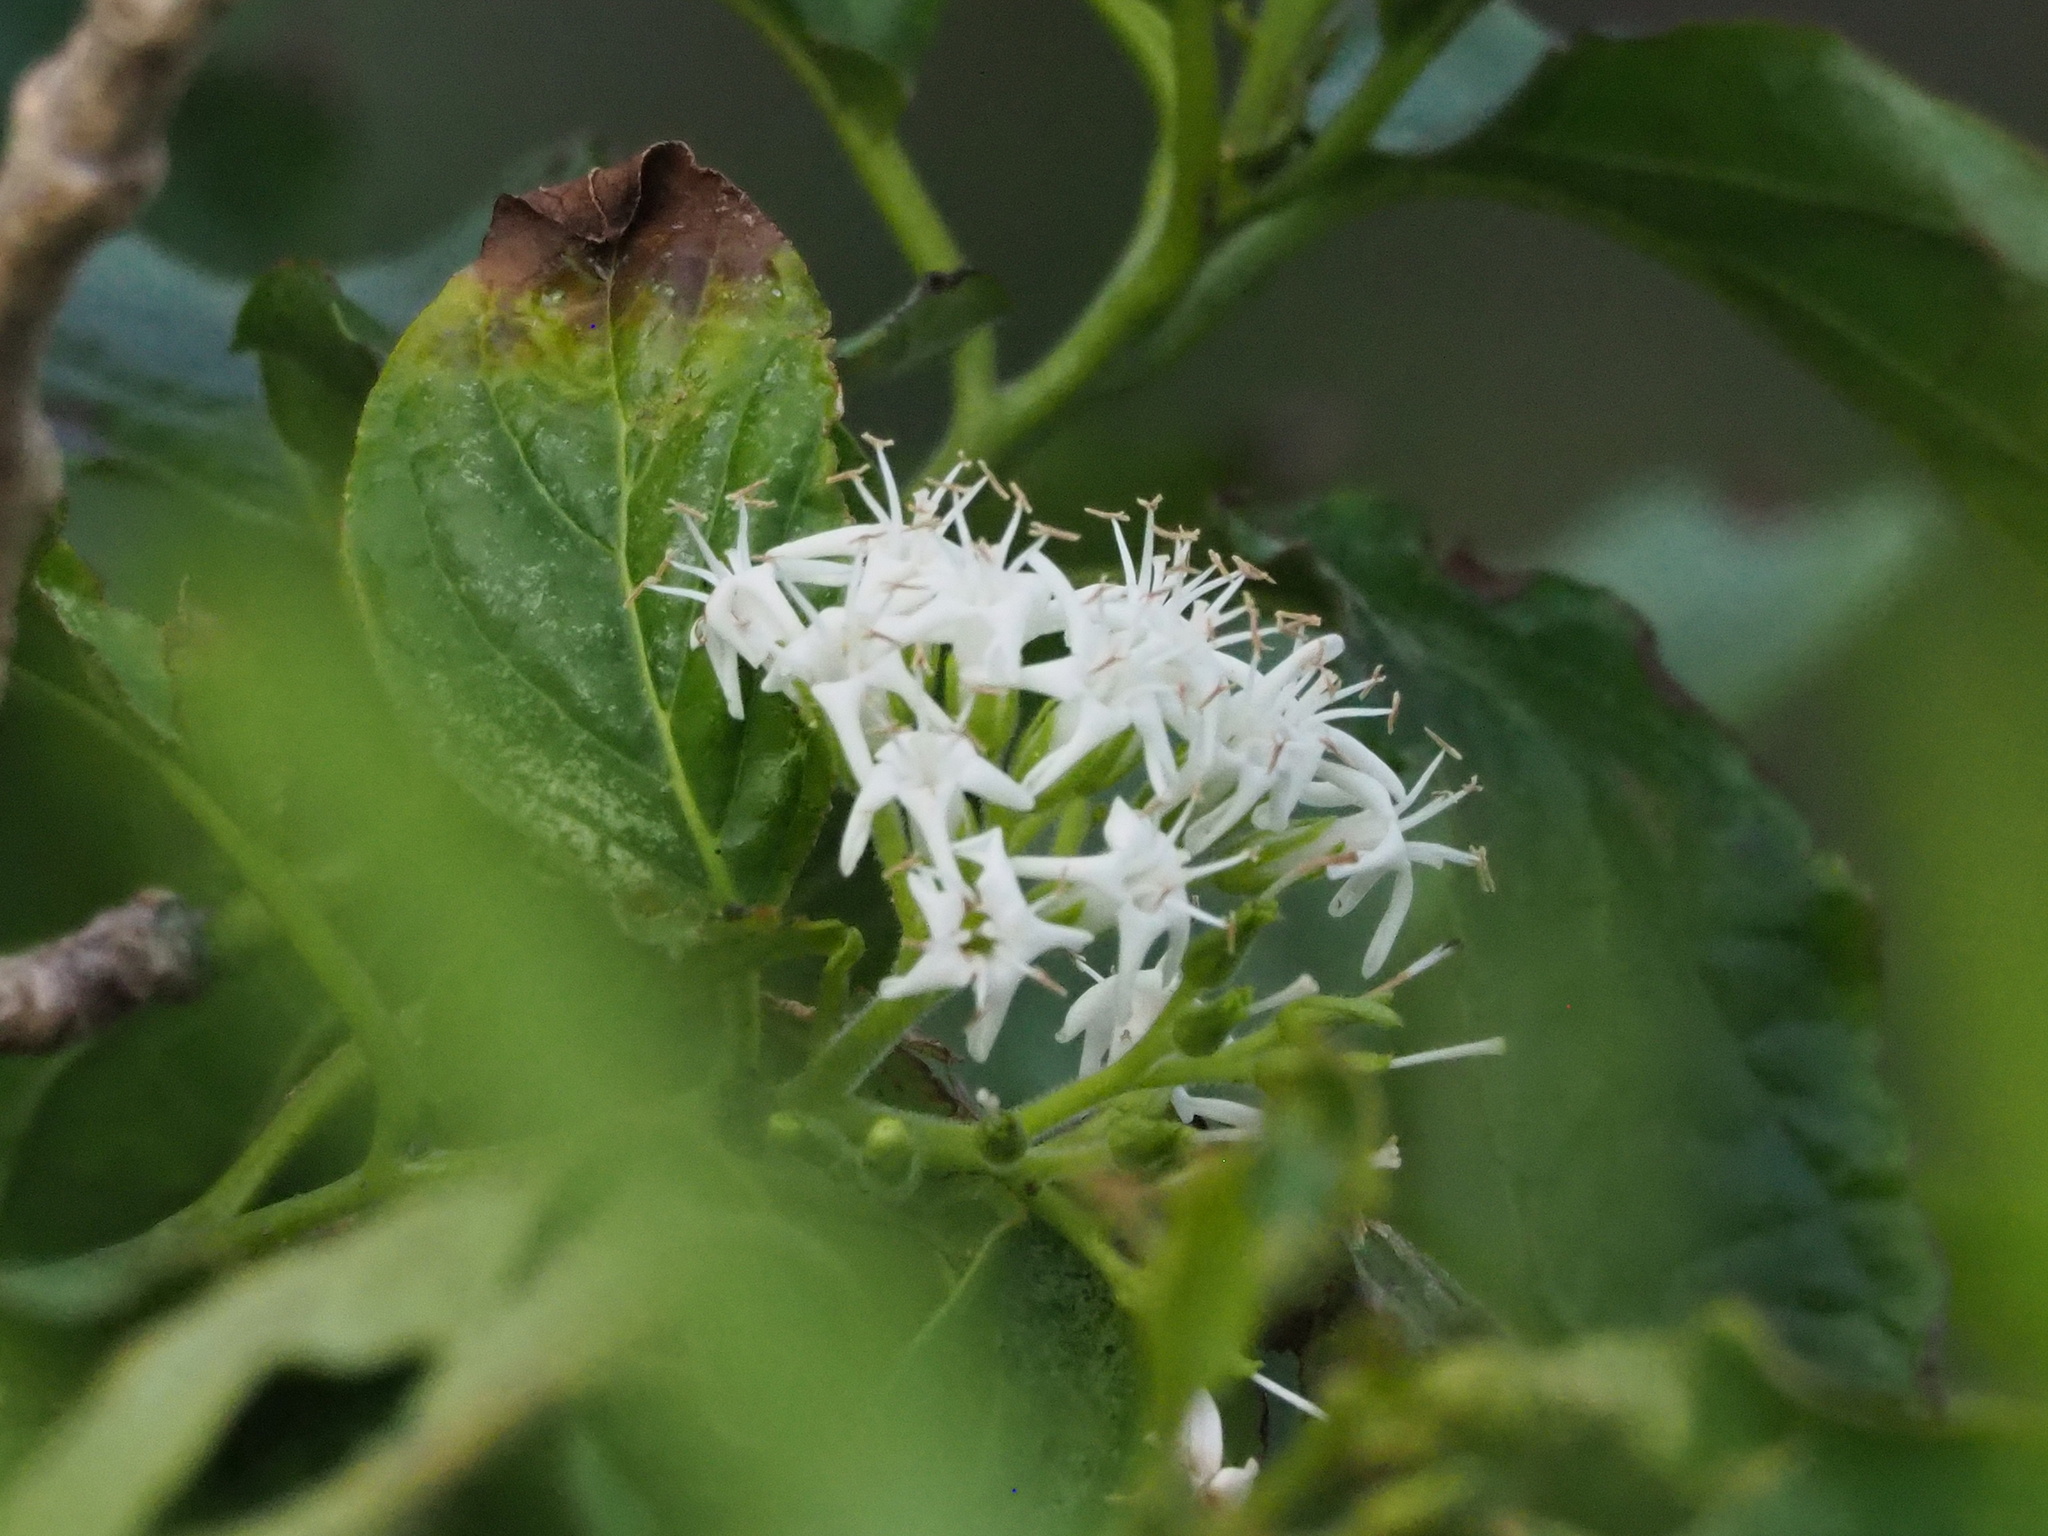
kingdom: Plantae
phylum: Tracheophyta
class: Magnoliopsida
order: Boraginales
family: Ehretiaceae
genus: Ehretia
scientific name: Ehretia resinosa
